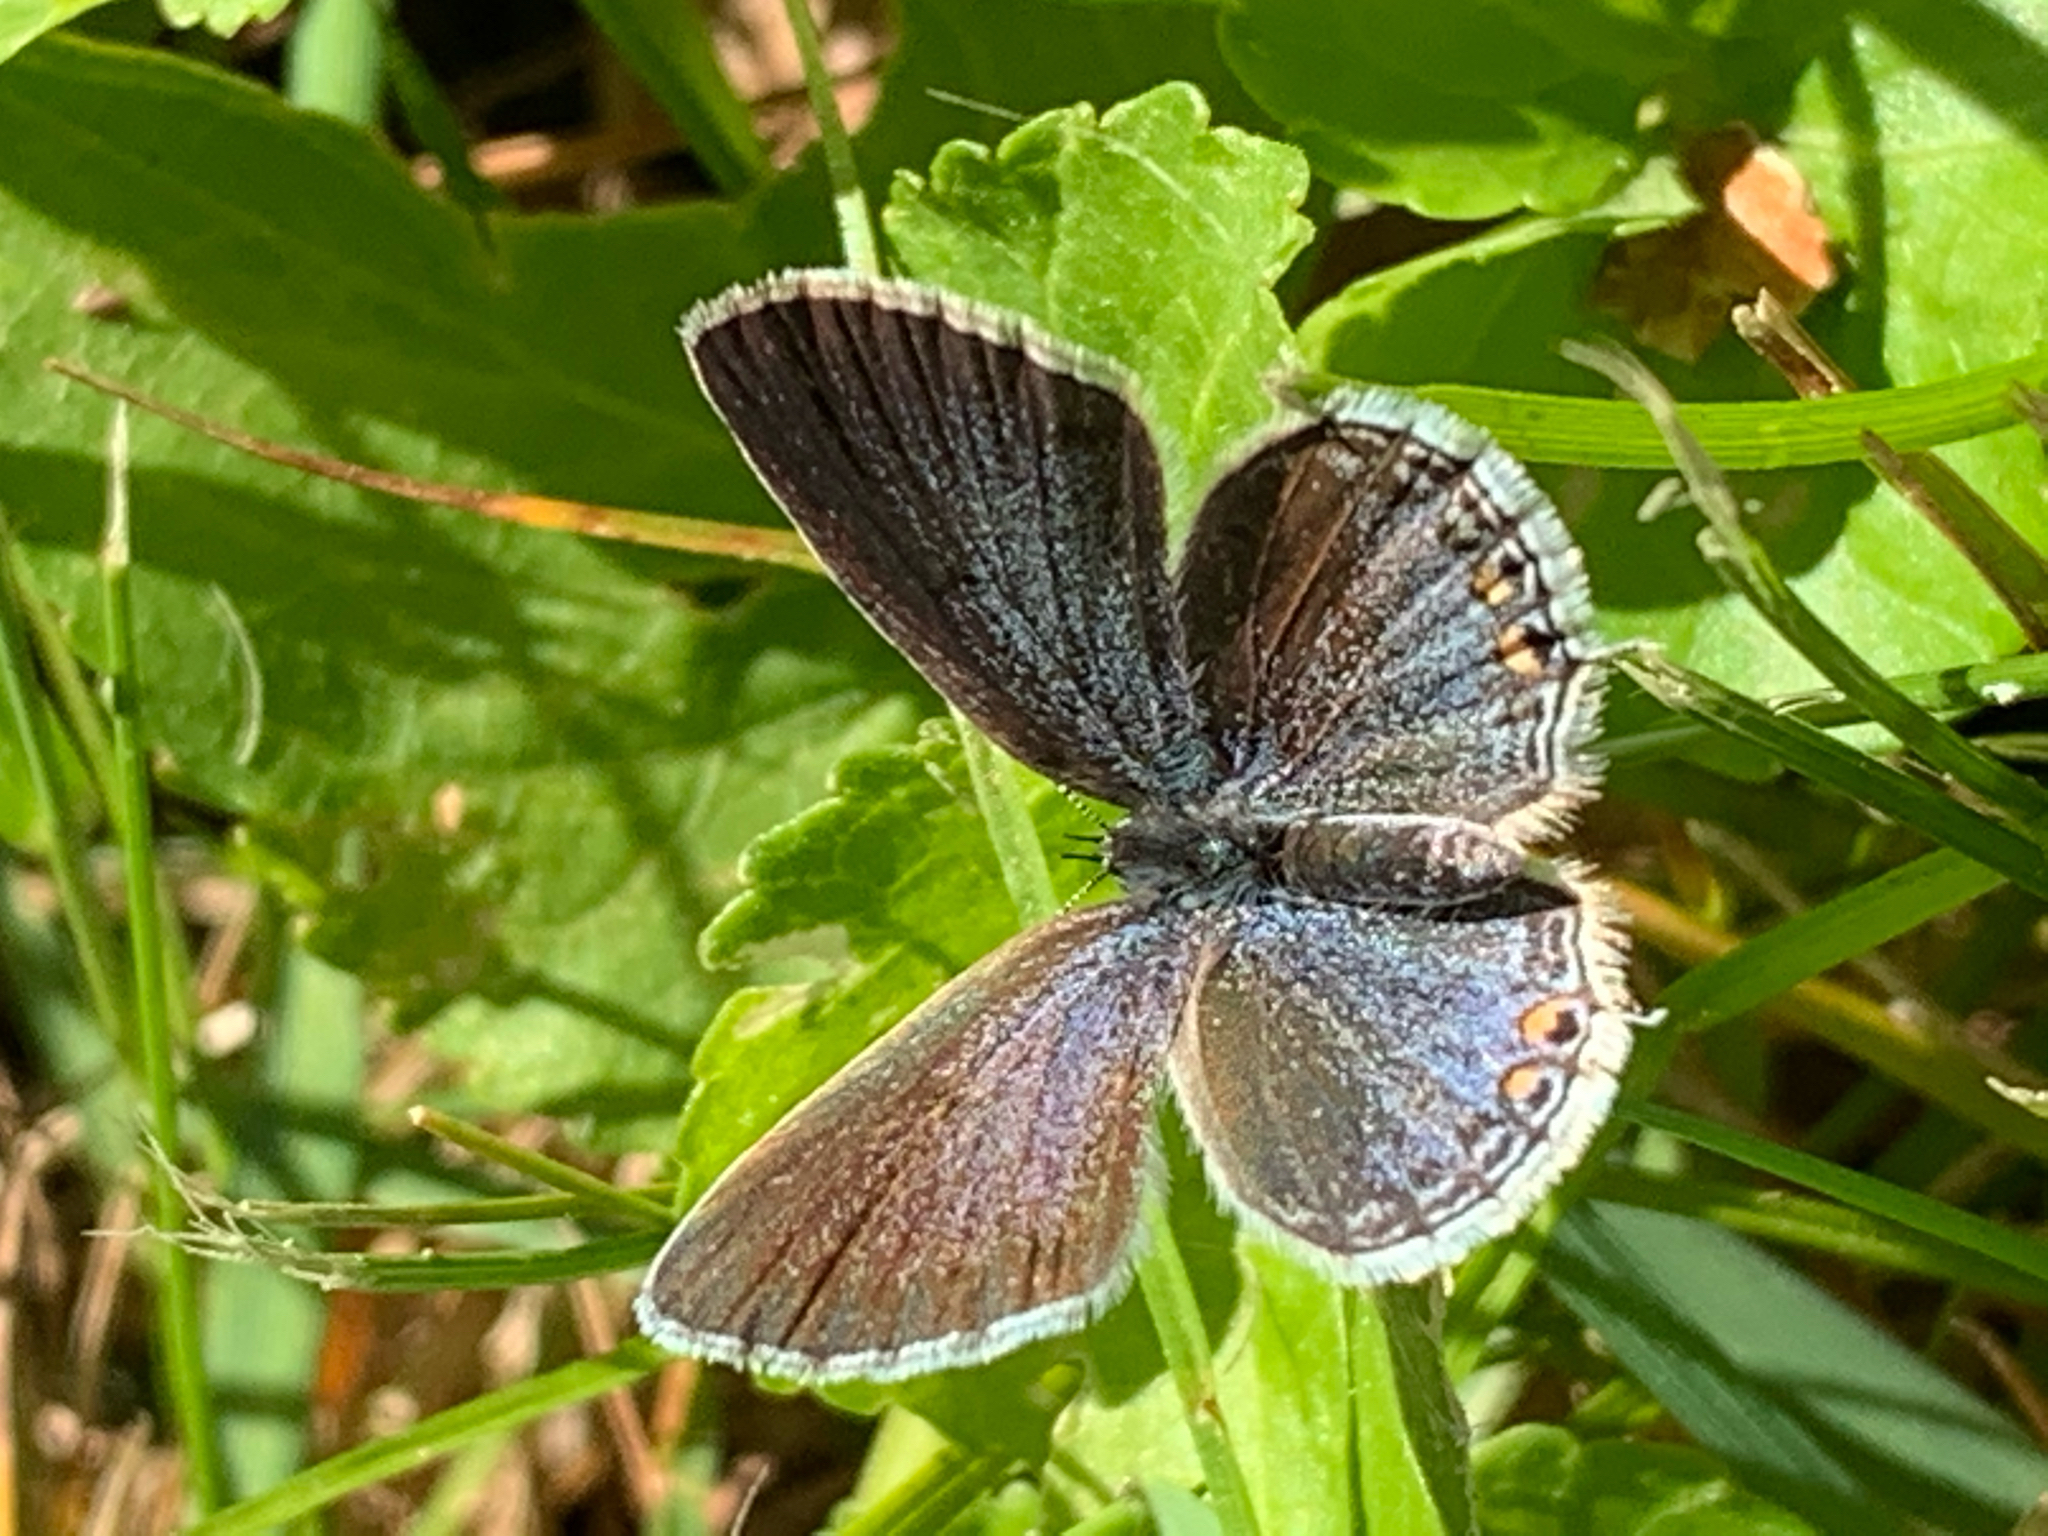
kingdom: Animalia
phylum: Arthropoda
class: Insecta
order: Lepidoptera
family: Lycaenidae
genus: Elkalyce
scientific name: Elkalyce comyntas
